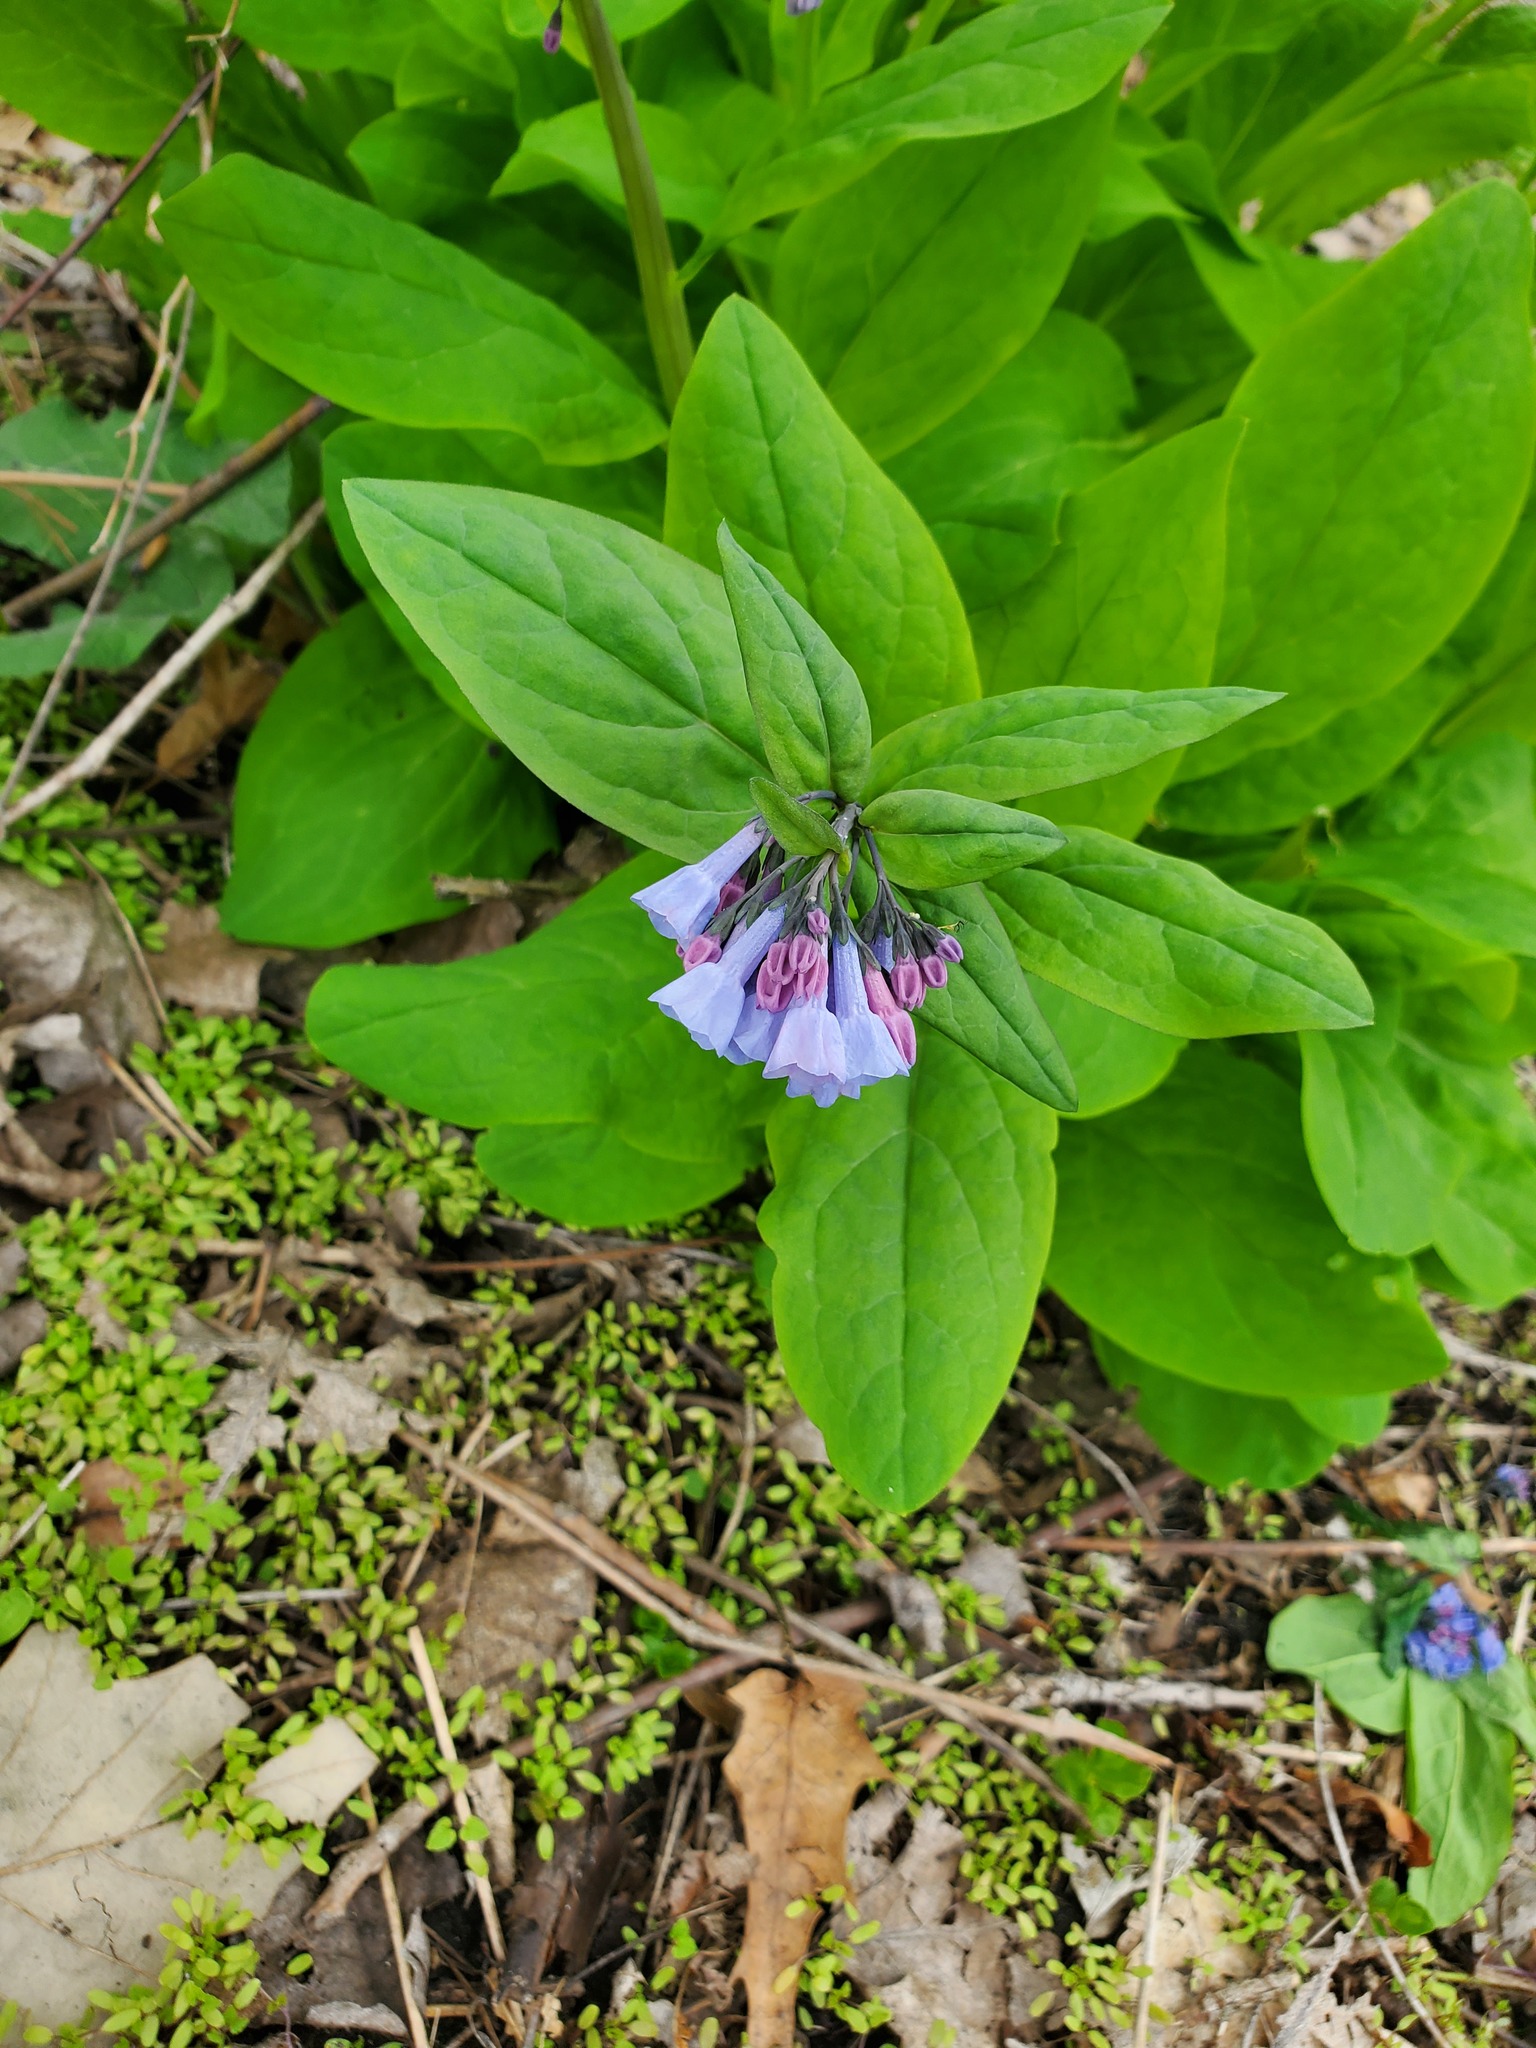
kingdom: Plantae
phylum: Tracheophyta
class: Magnoliopsida
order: Boraginales
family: Boraginaceae
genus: Mertensia
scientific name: Mertensia virginica
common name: Virginia bluebells
